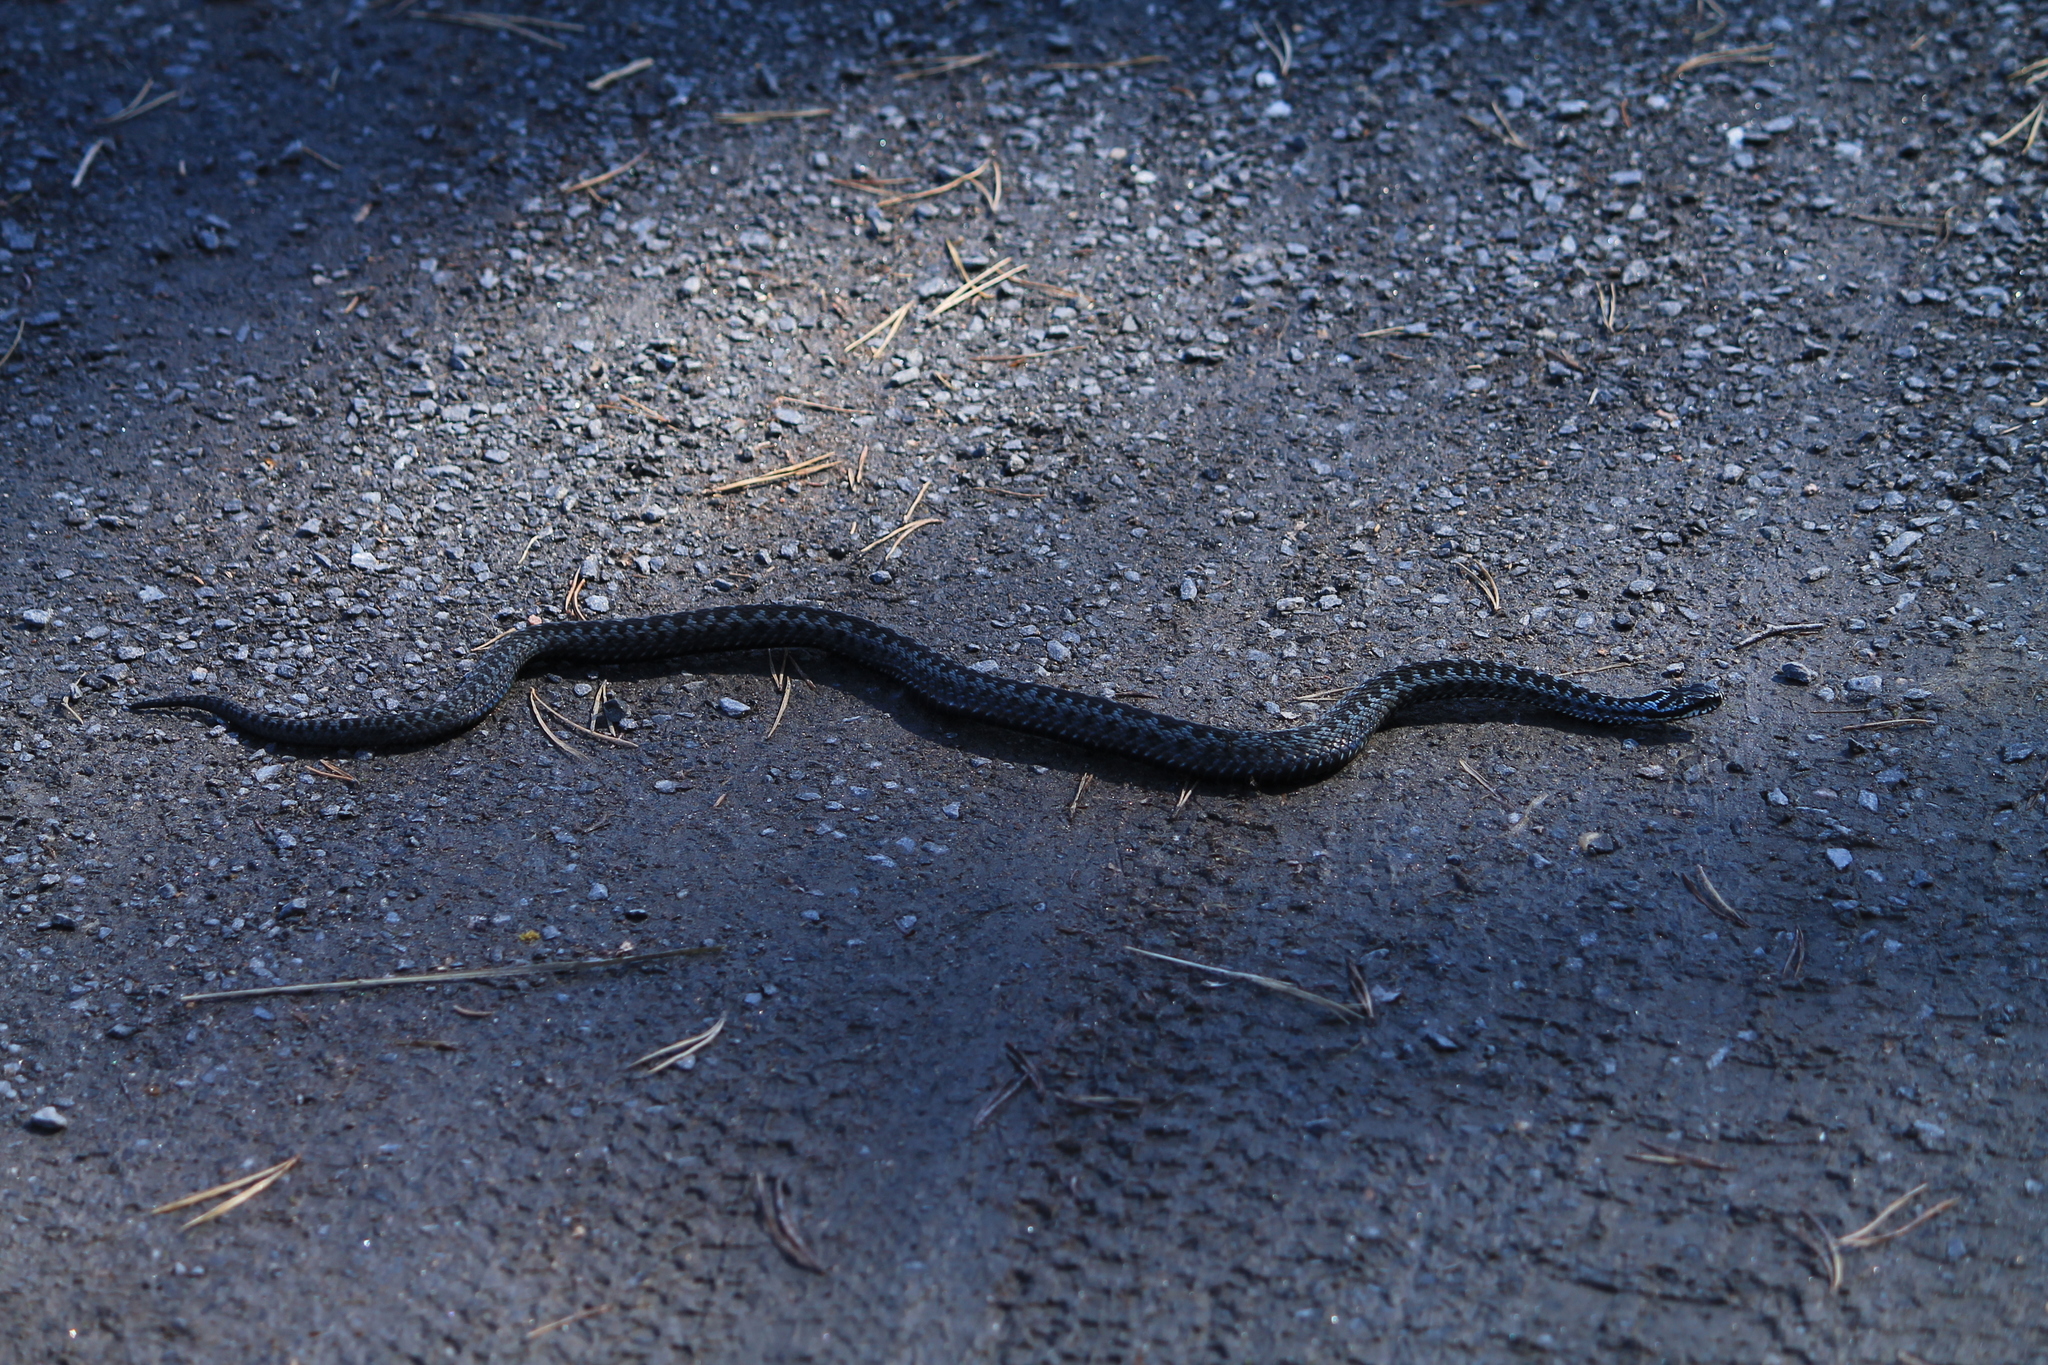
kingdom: Animalia
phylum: Chordata
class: Squamata
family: Viperidae
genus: Vipera
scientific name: Vipera berus
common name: Adder
